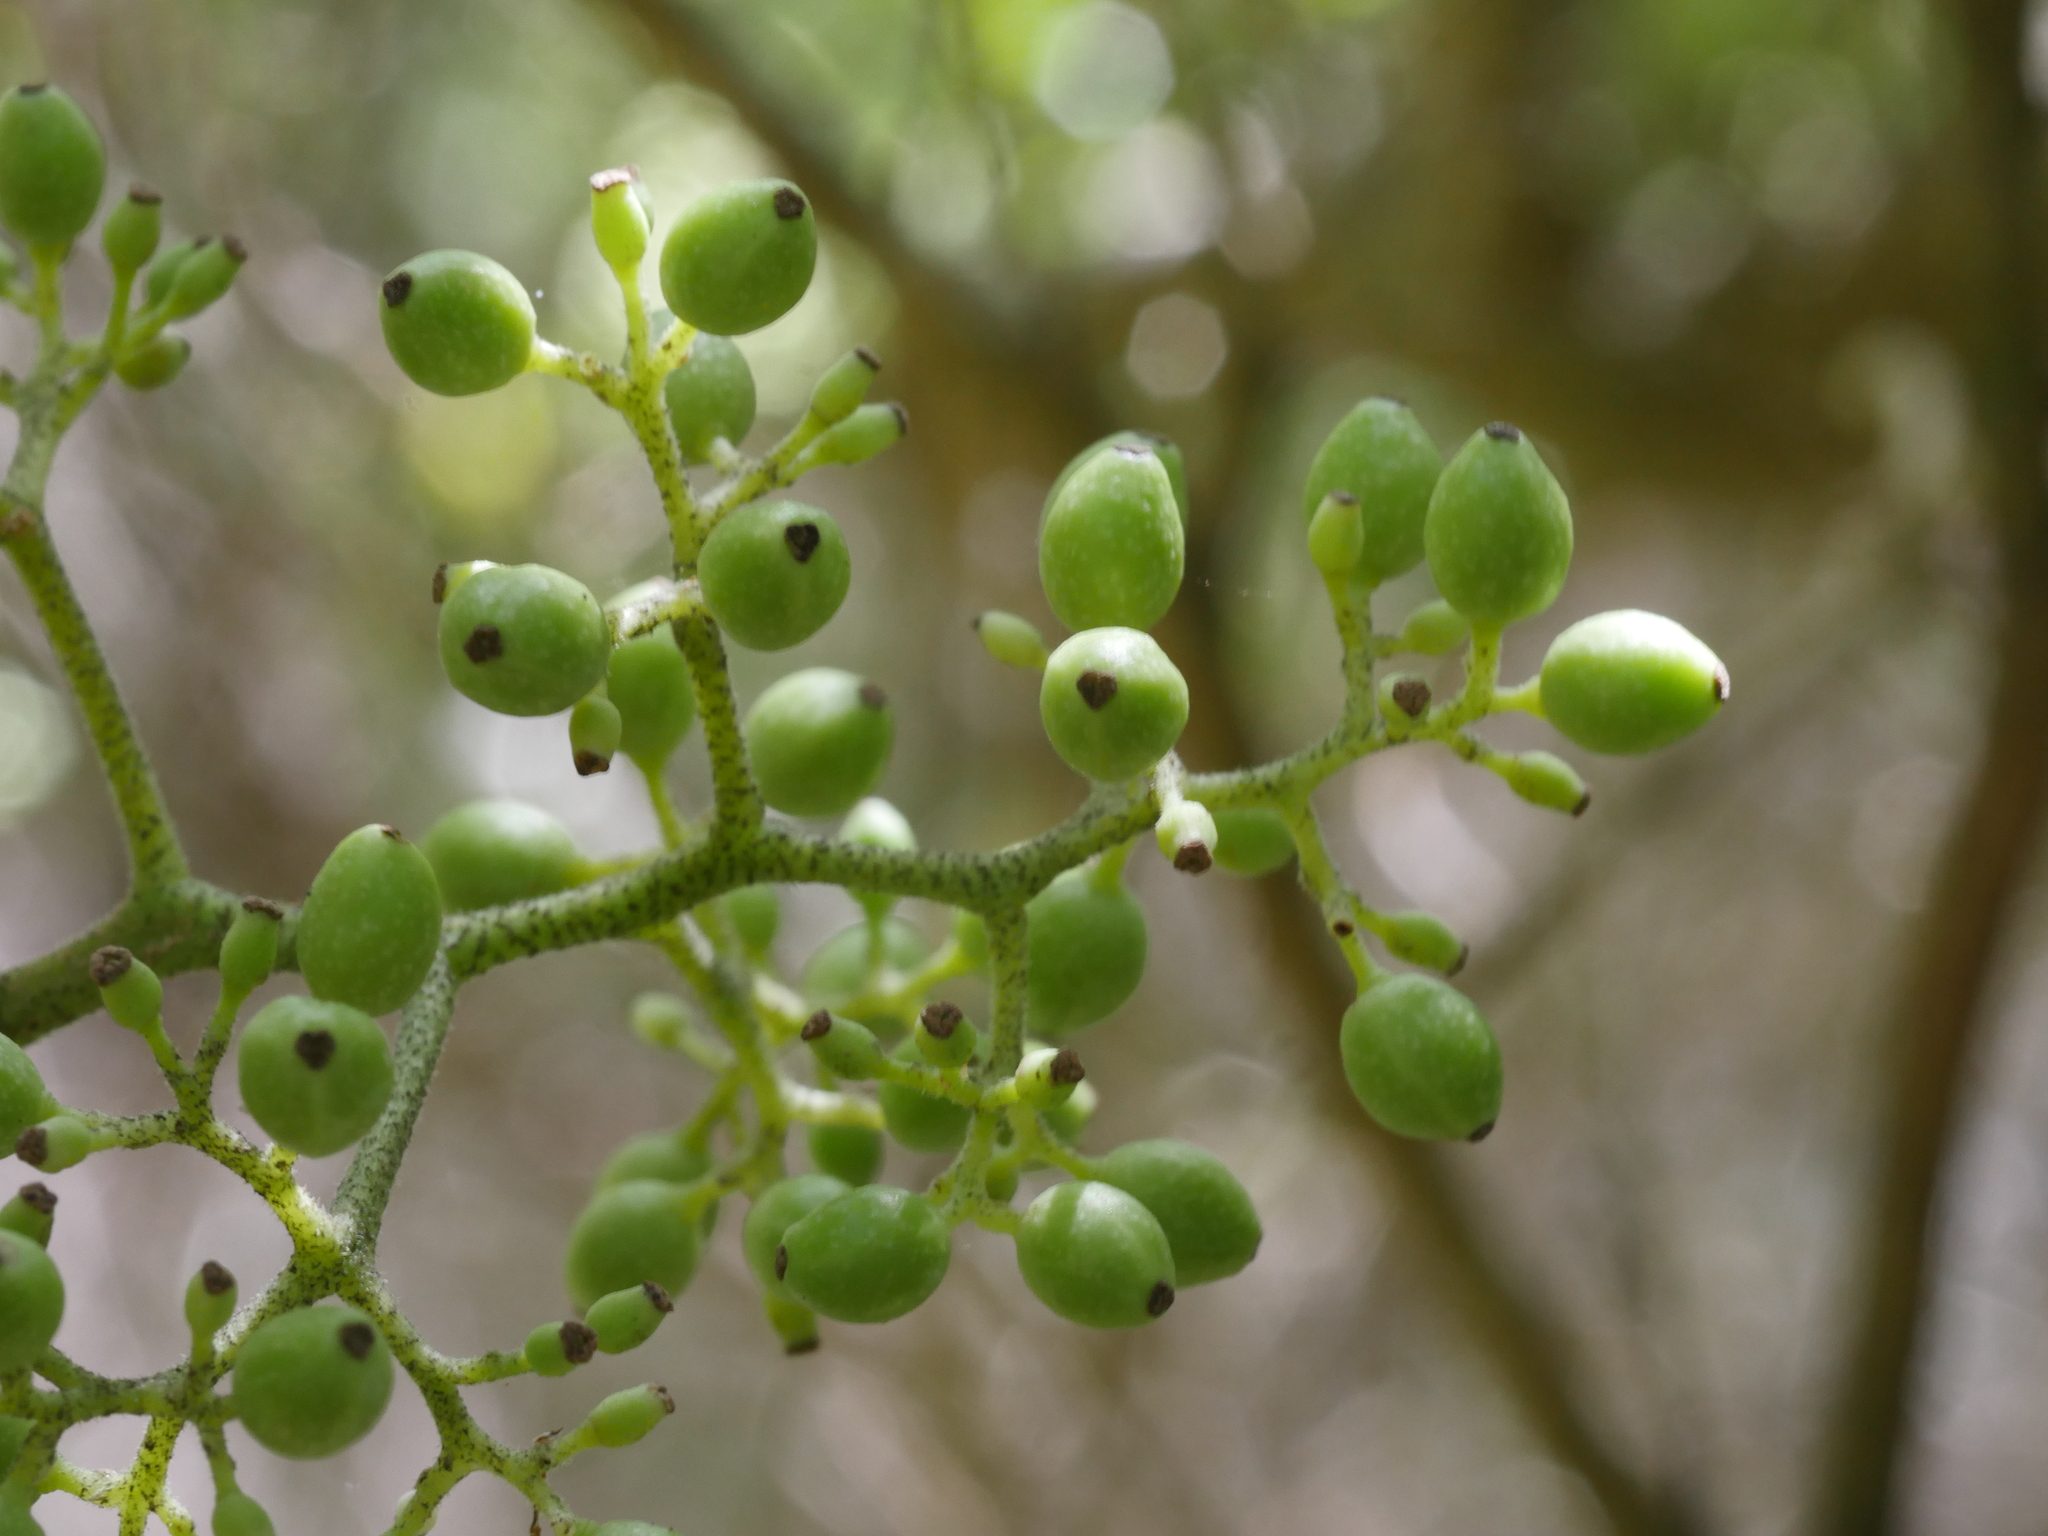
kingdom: Plantae
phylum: Tracheophyta
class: Magnoliopsida
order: Apiales
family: Pennantiaceae
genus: Pennantia
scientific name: Pennantia corymbosa
